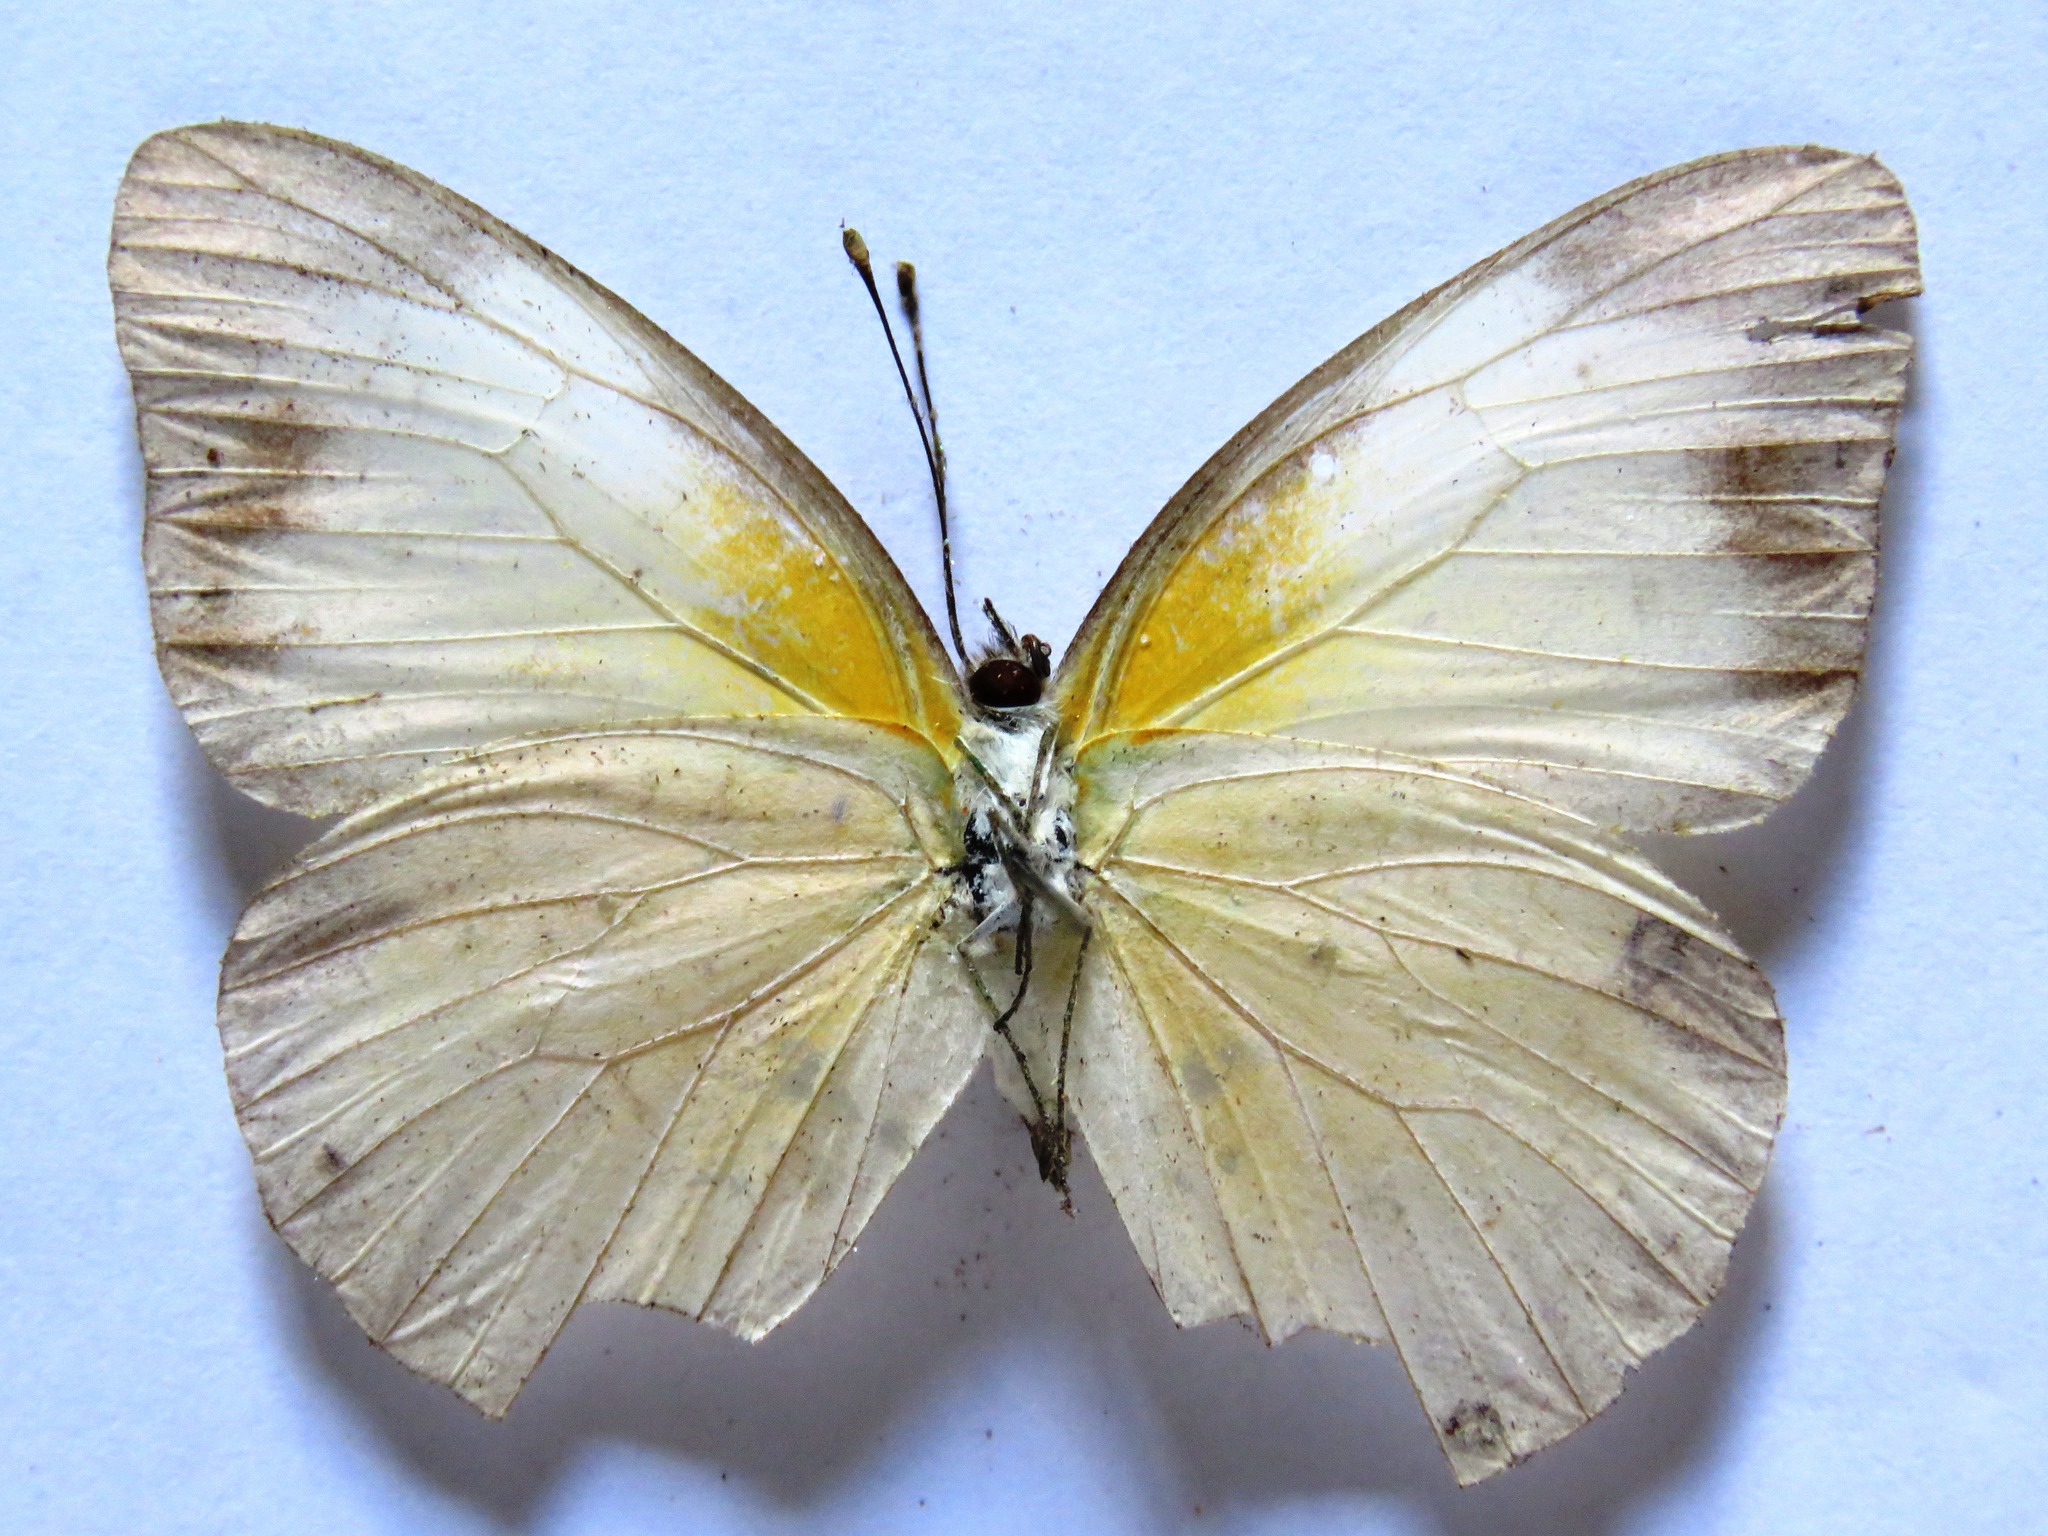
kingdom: Animalia
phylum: Arthropoda
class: Insecta
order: Lepidoptera
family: Pieridae
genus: Glutophrissa
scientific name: Glutophrissa drusilla
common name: Florida white
